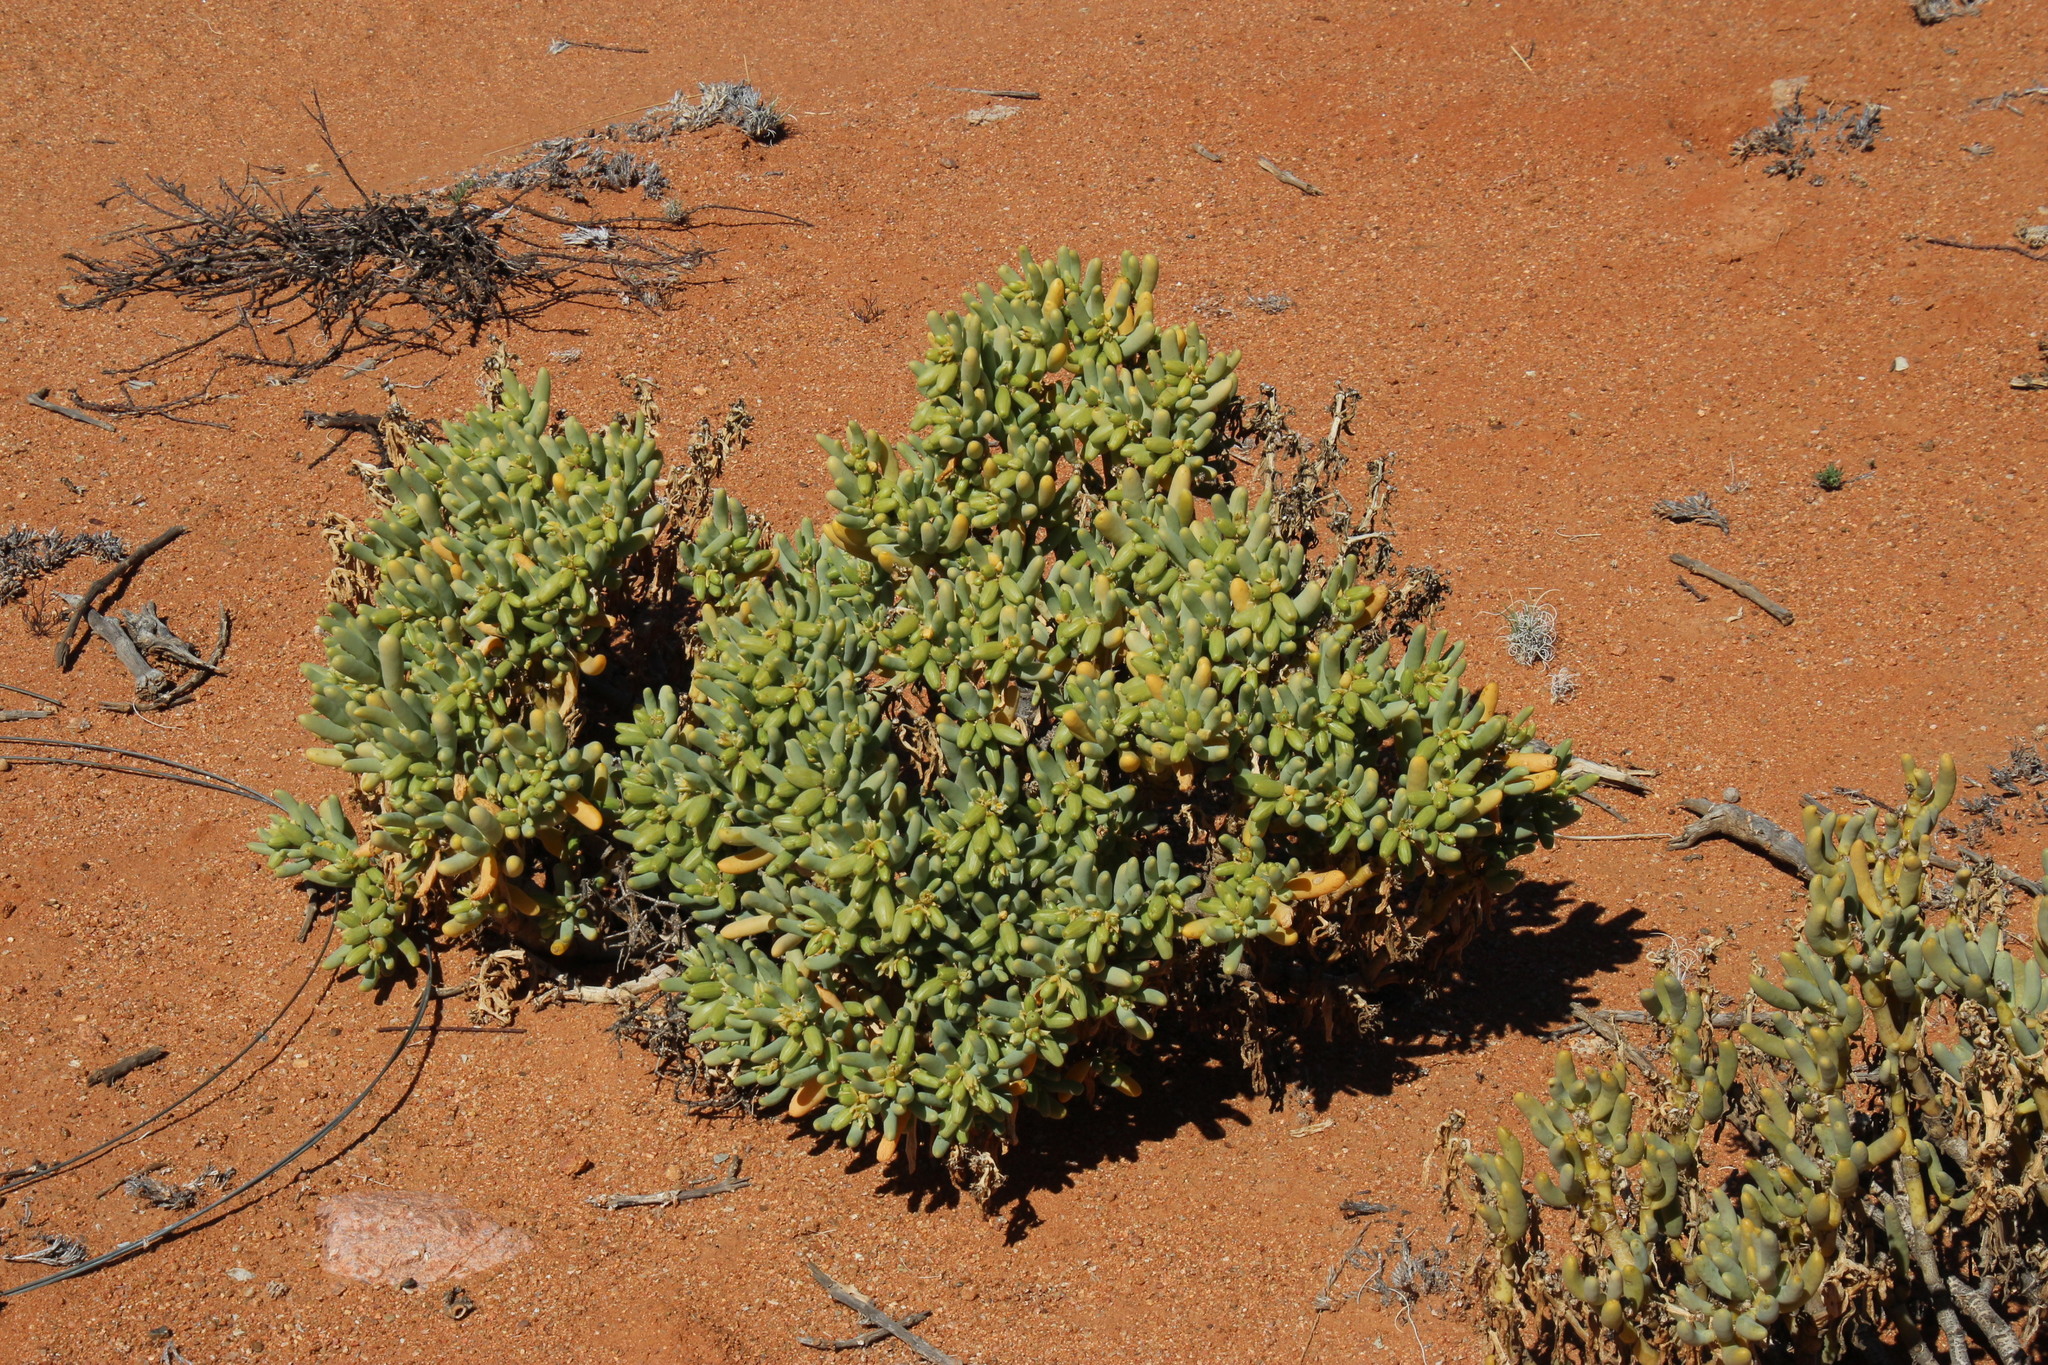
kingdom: Plantae
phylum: Tracheophyta
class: Magnoliopsida
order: Zygophyllales
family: Zygophyllaceae
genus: Augea
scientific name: Augea capensis
